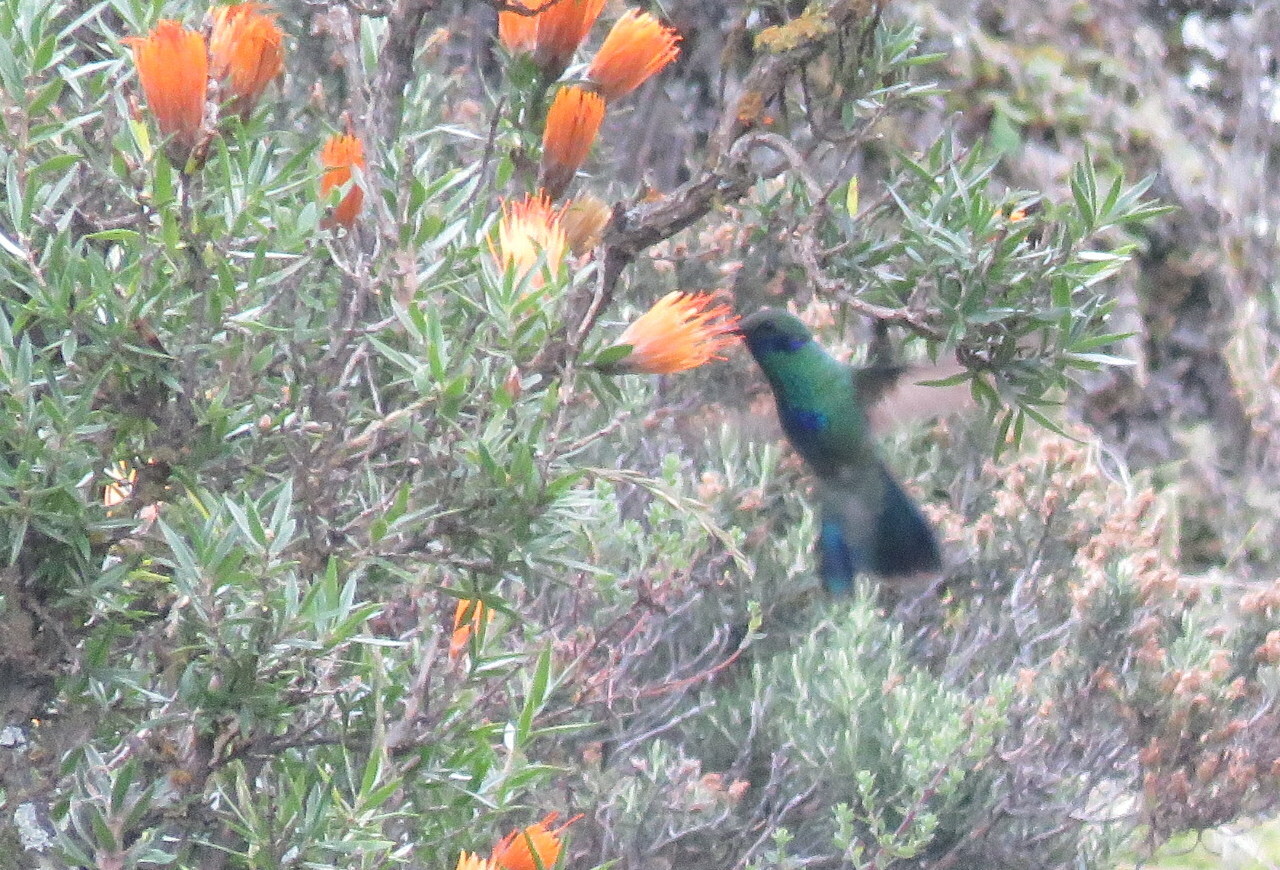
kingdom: Animalia
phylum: Chordata
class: Aves
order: Apodiformes
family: Trochilidae
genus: Colibri
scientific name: Colibri coruscans
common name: Sparkling violetear
